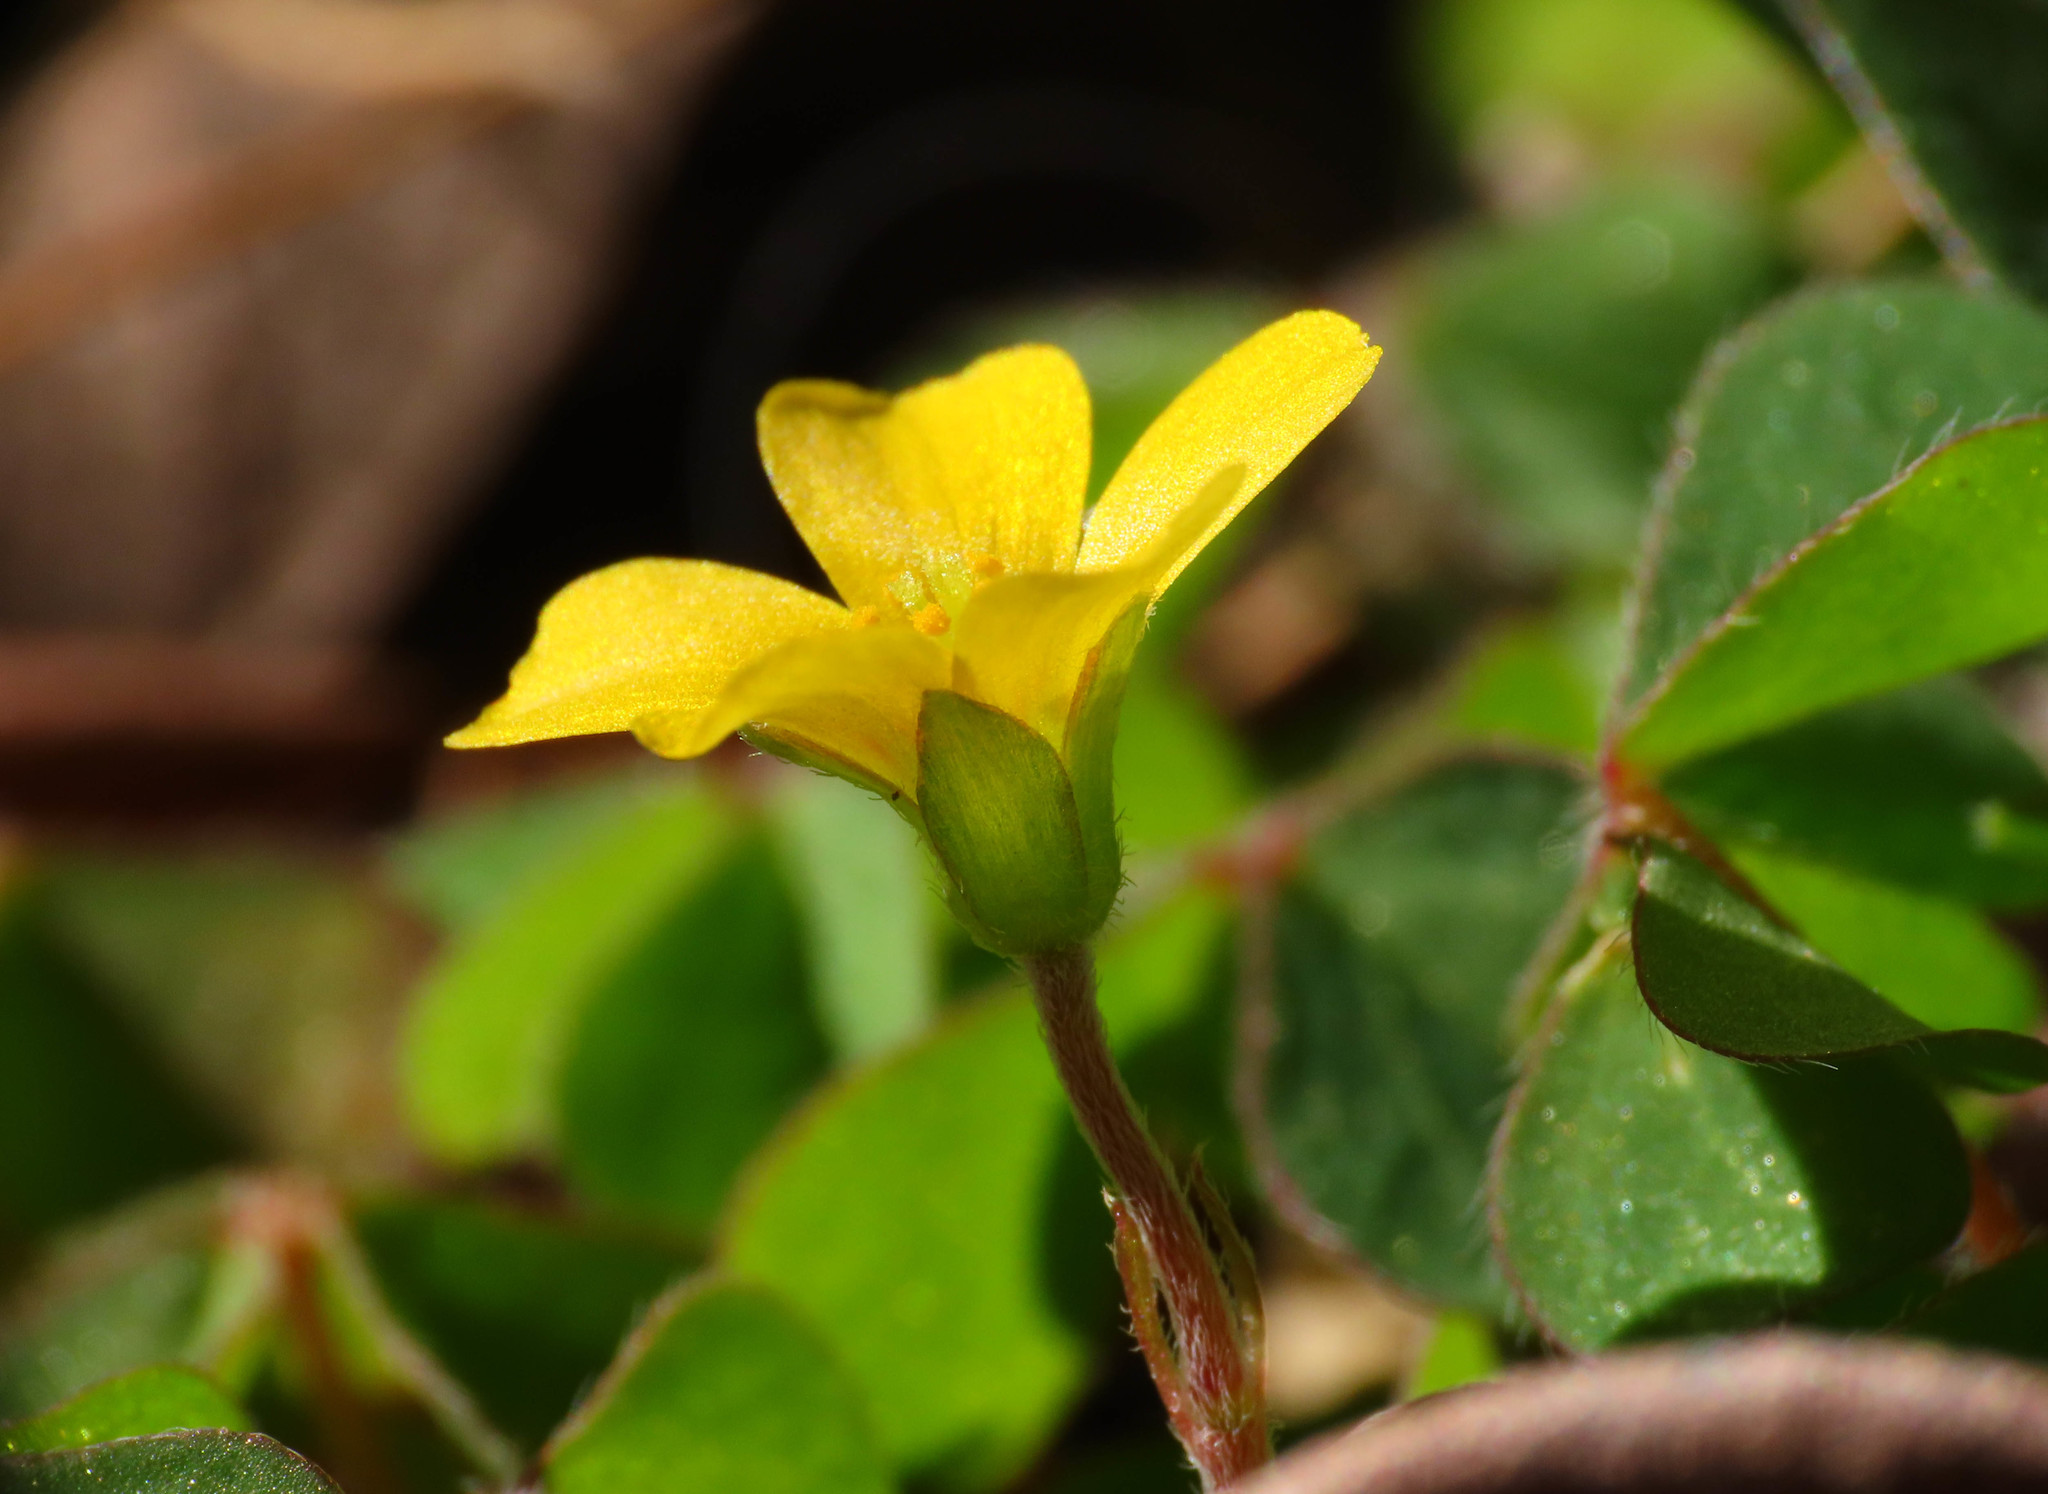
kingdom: Plantae
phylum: Tracheophyta
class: Magnoliopsida
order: Oxalidales
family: Oxalidaceae
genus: Oxalis
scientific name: Oxalis corniculata
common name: Procumbent yellow-sorrel
